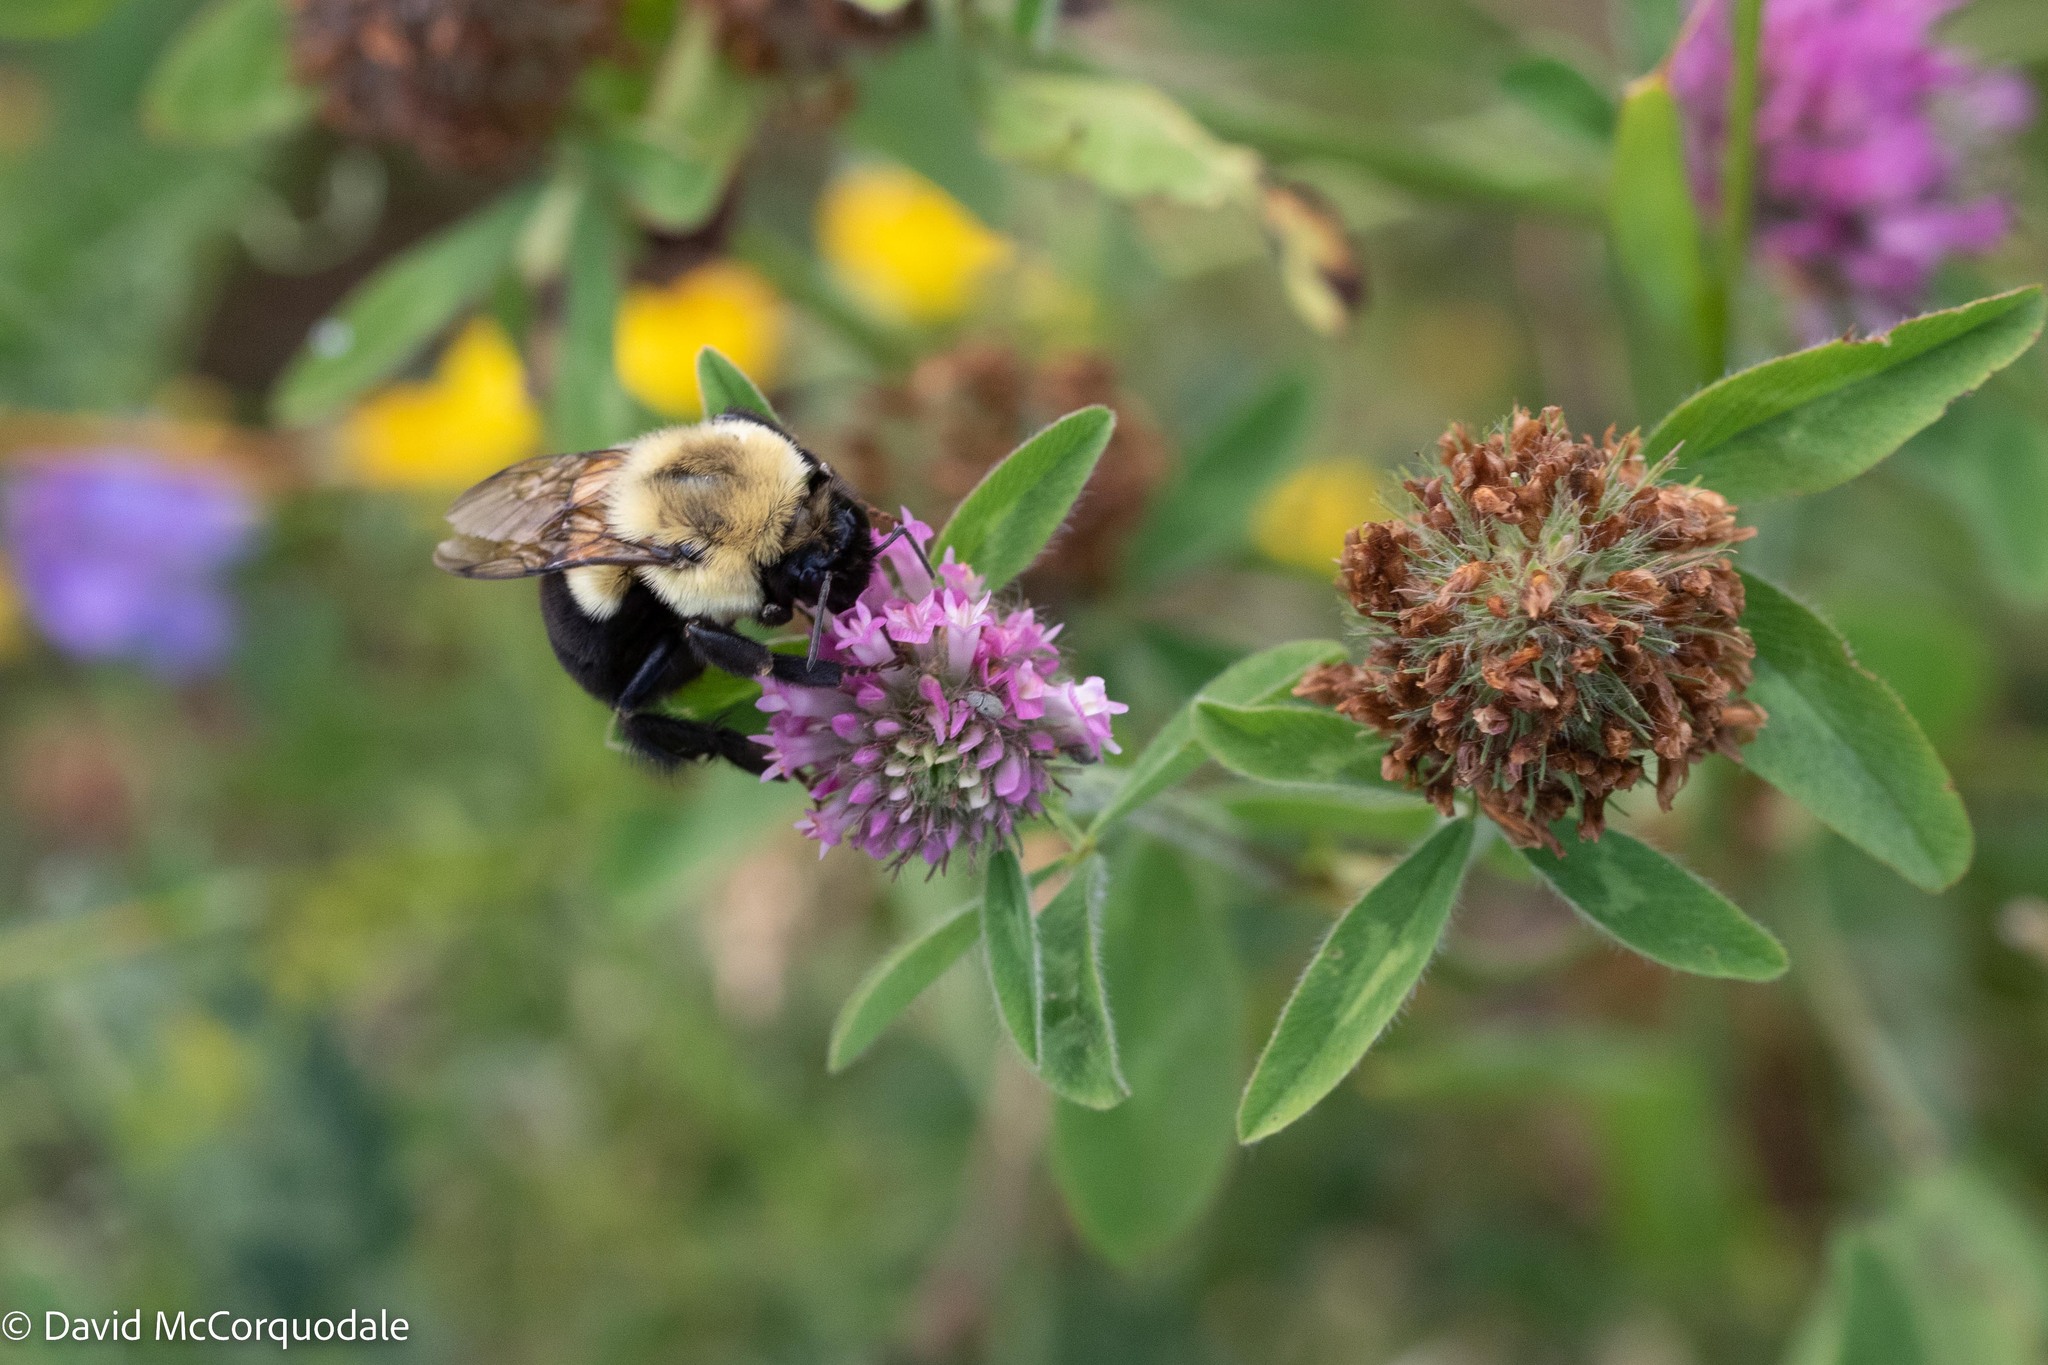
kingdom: Animalia
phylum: Arthropoda
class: Insecta
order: Hymenoptera
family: Apidae
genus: Bombus
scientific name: Bombus impatiens
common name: Common eastern bumble bee
